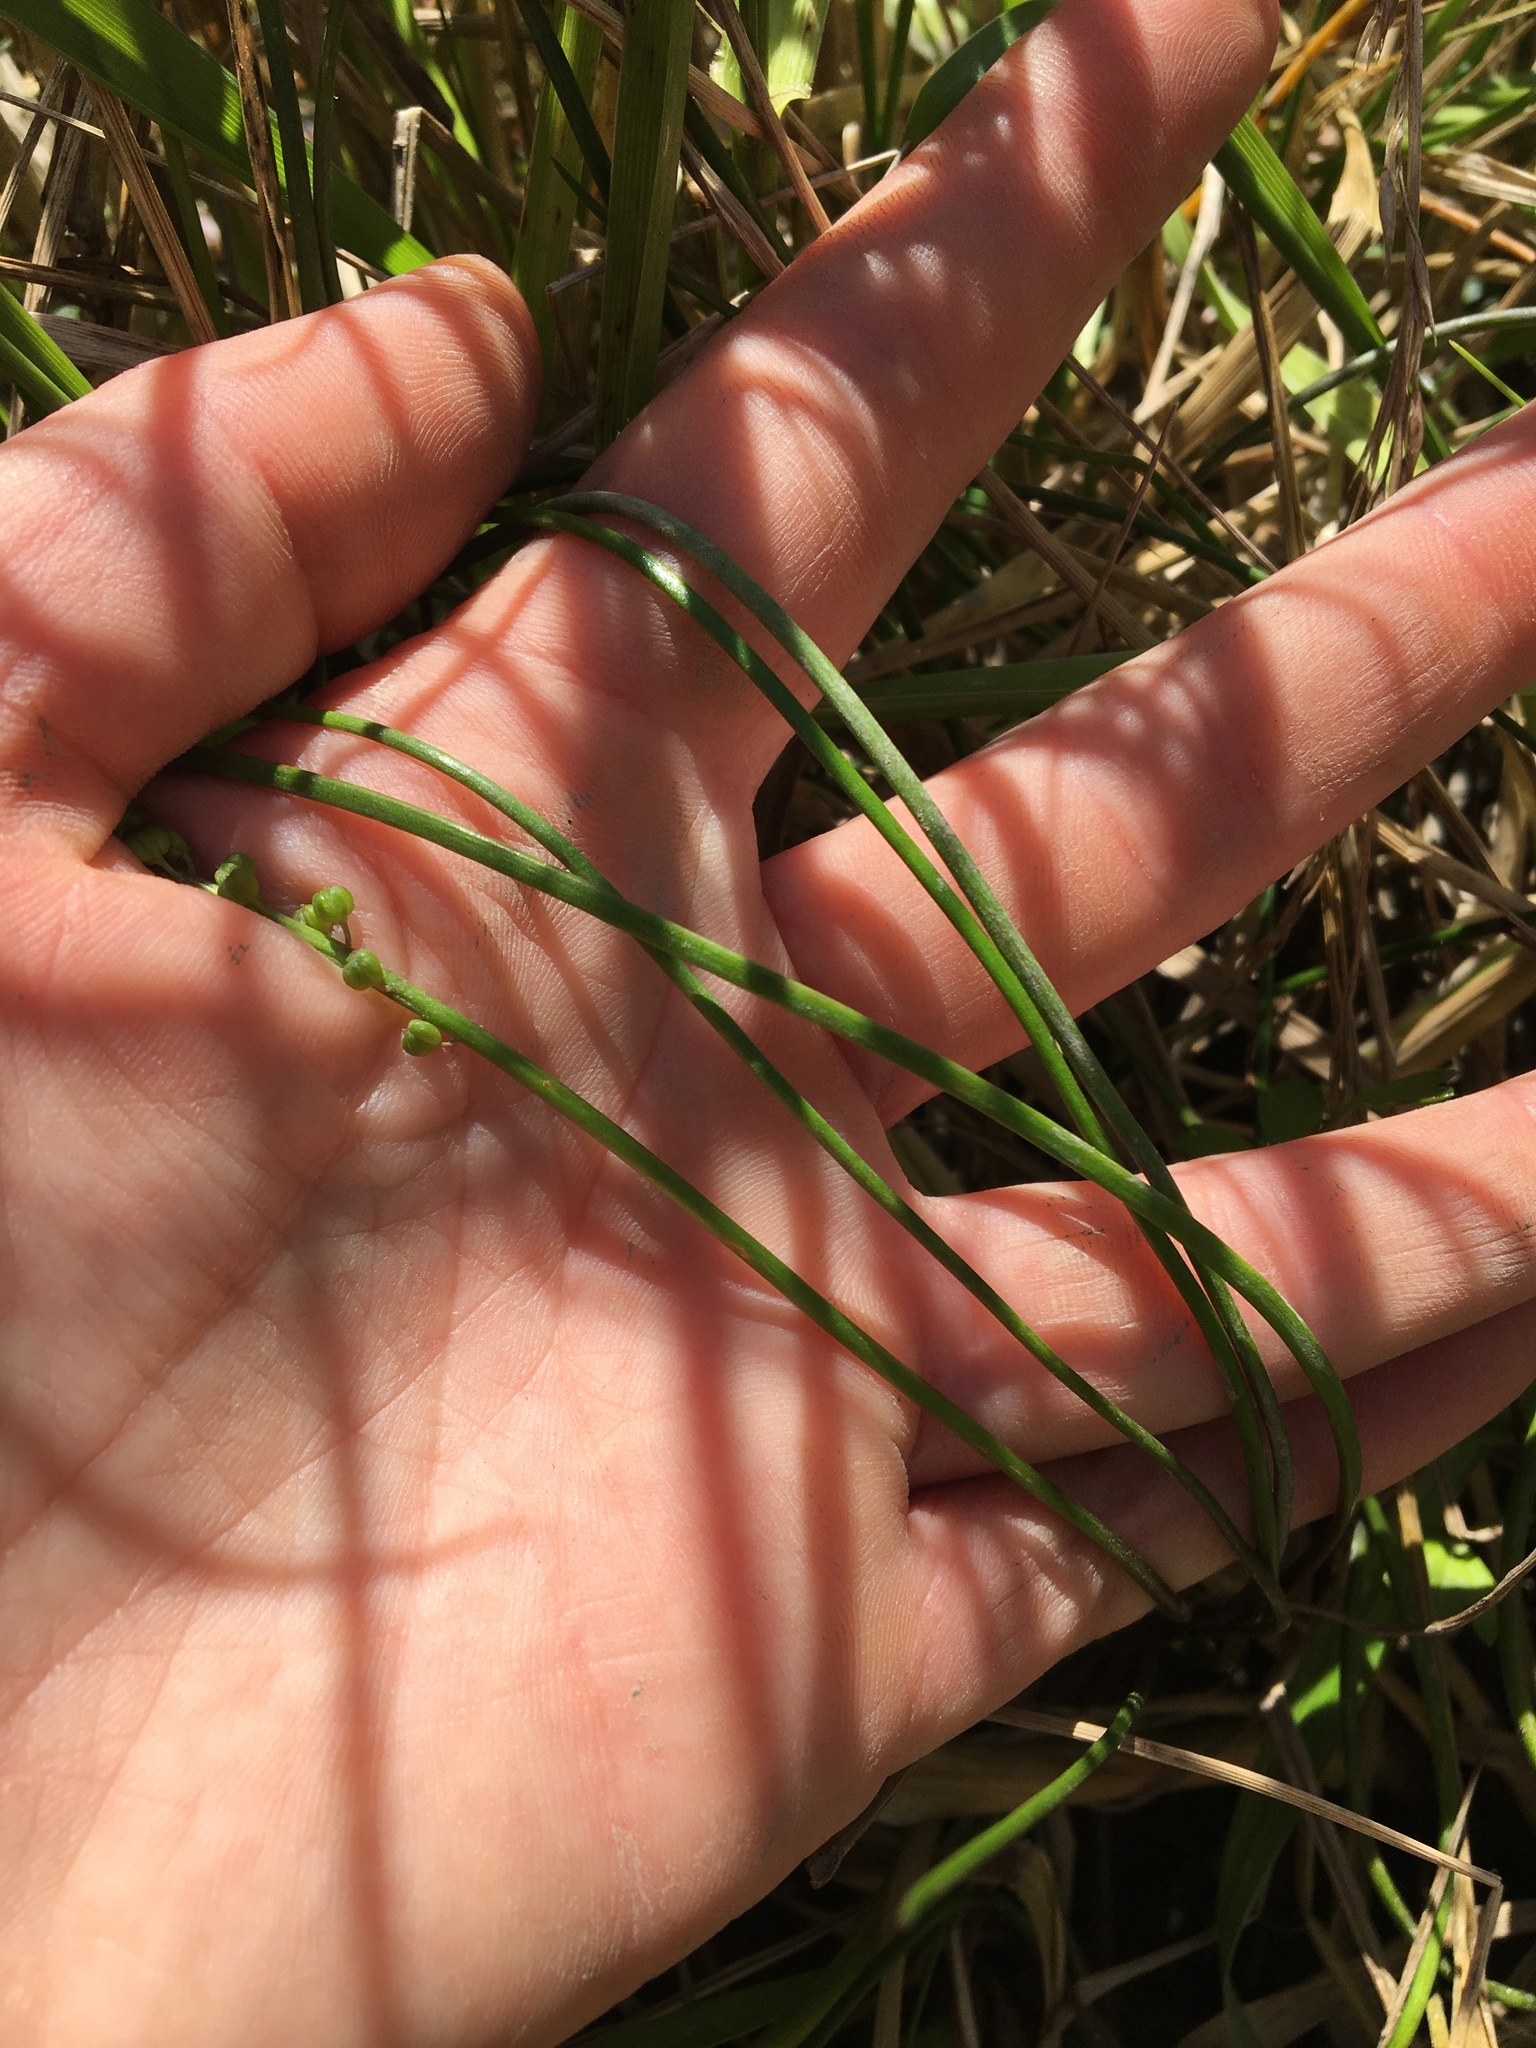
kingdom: Plantae
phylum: Tracheophyta
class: Liliopsida
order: Alismatales
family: Juncaginaceae
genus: Triglochin
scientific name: Triglochin striata
